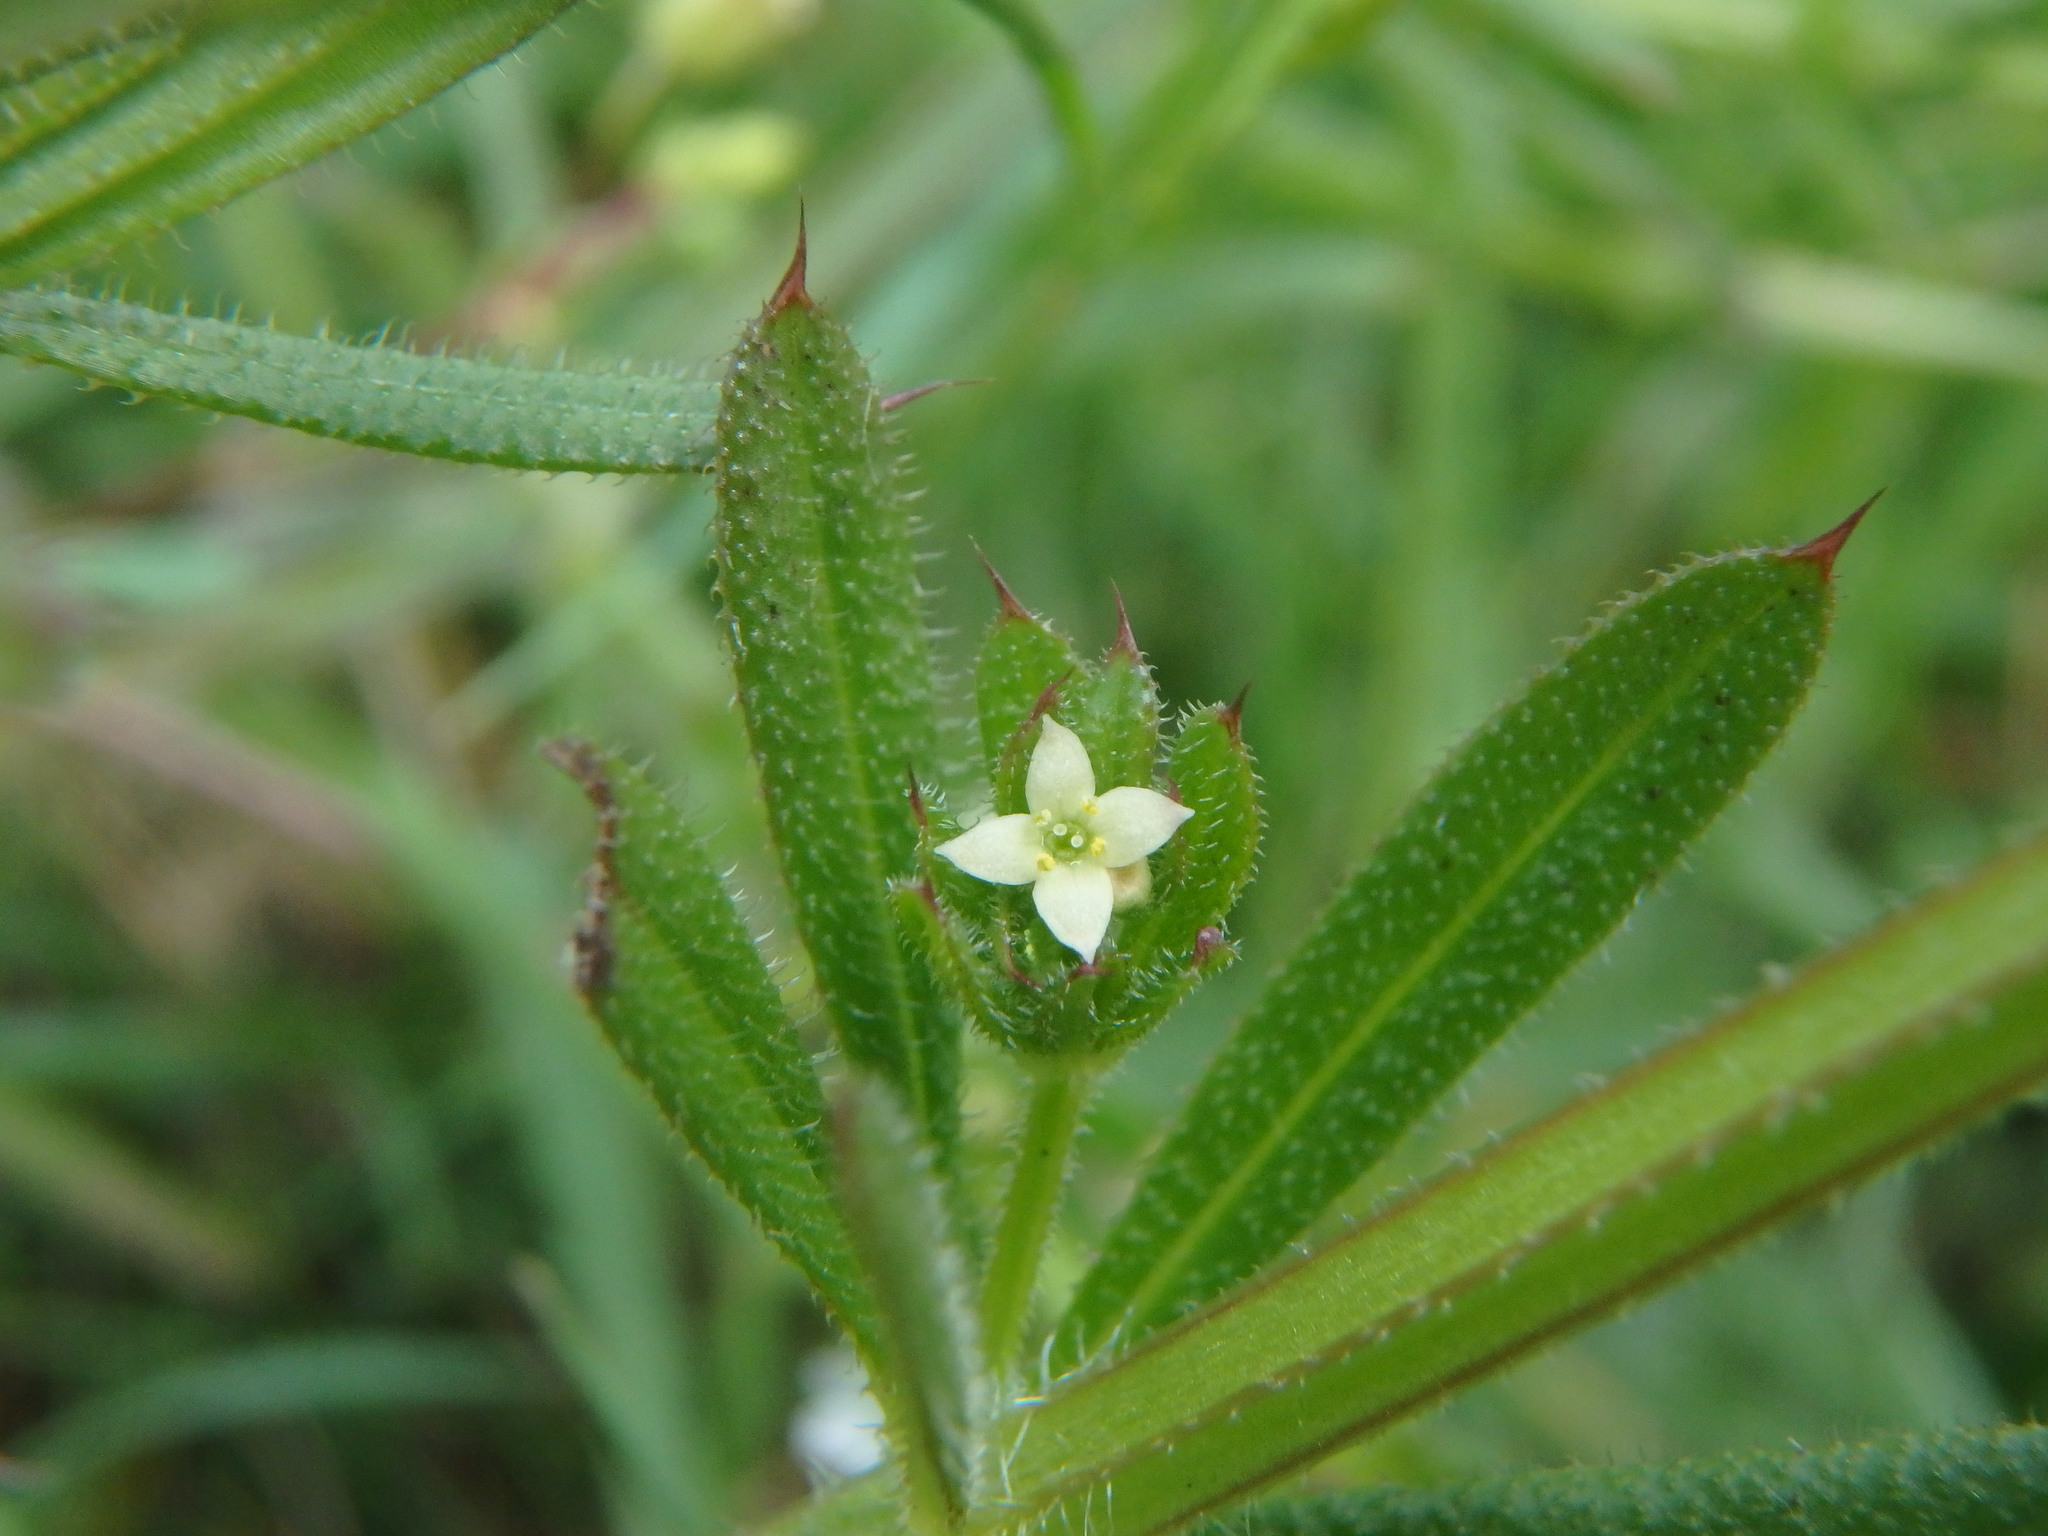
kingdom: Plantae
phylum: Tracheophyta
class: Magnoliopsida
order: Gentianales
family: Rubiaceae
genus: Galium
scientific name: Galium aparine
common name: Cleavers
